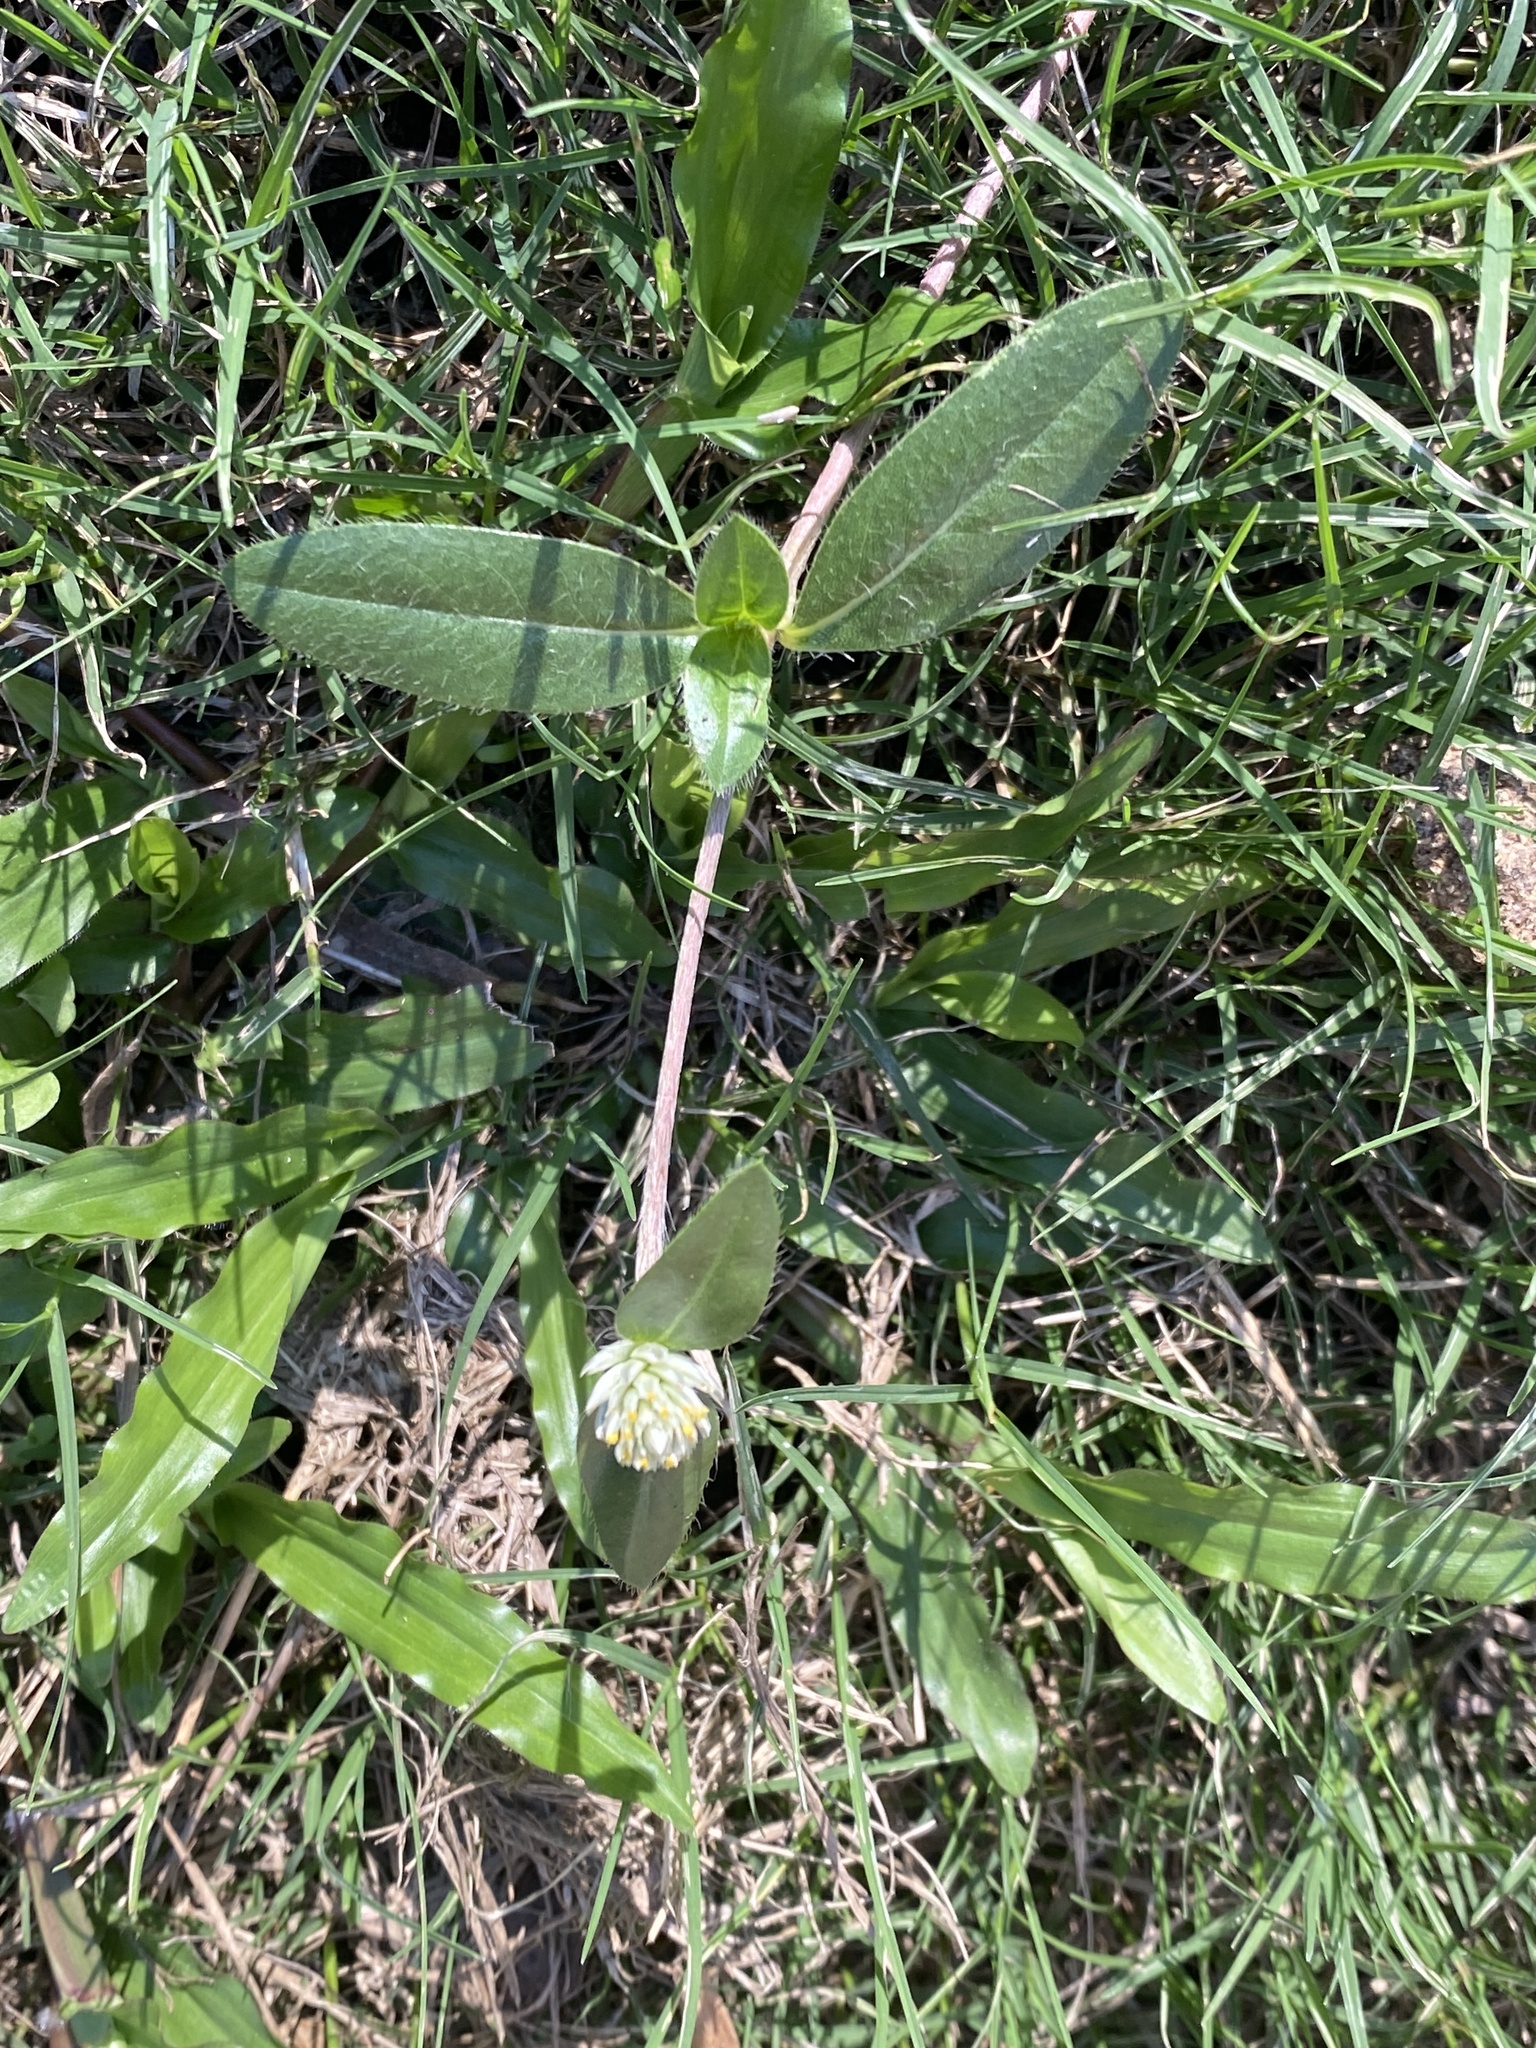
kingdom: Plantae
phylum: Tracheophyta
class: Magnoliopsida
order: Caryophyllales
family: Amaranthaceae
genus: Gomphrena
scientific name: Gomphrena celosioides
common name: Gomphrena-weed
